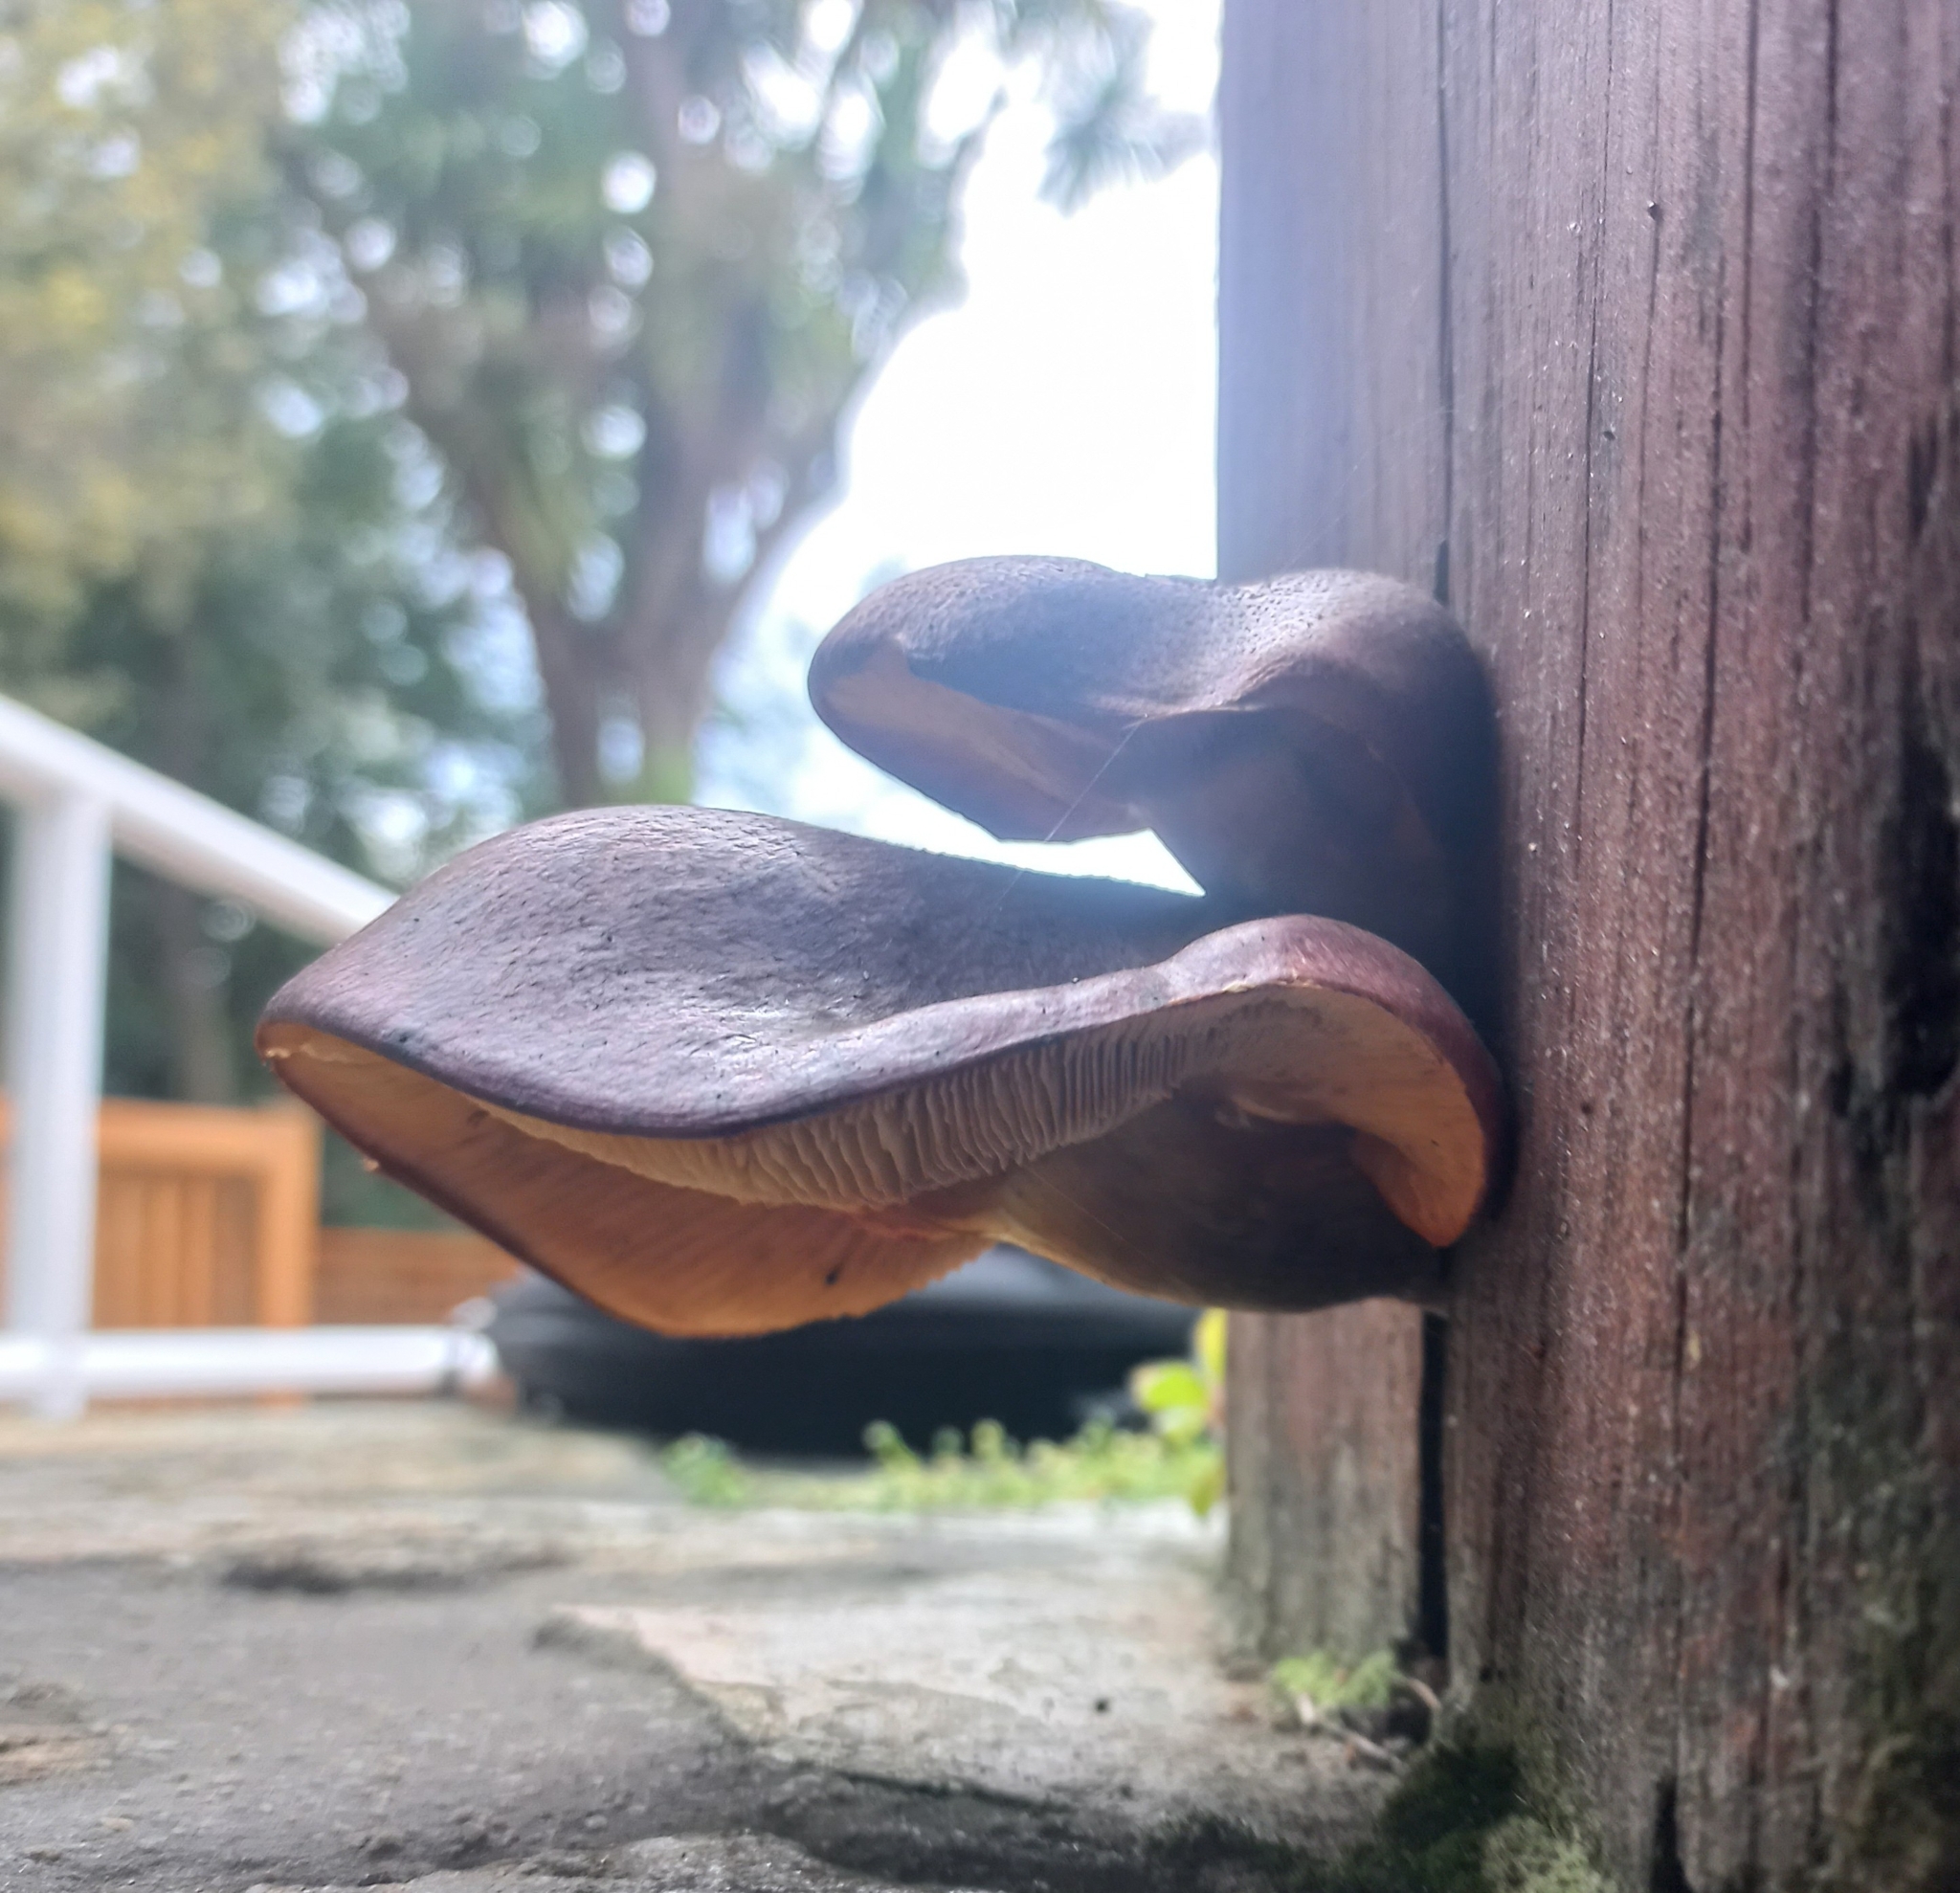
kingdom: Fungi
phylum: Basidiomycota
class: Agaricomycetes
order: Agaricales
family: Hymenogastraceae
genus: Gymnopilus
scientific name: Gymnopilus purpuratus
